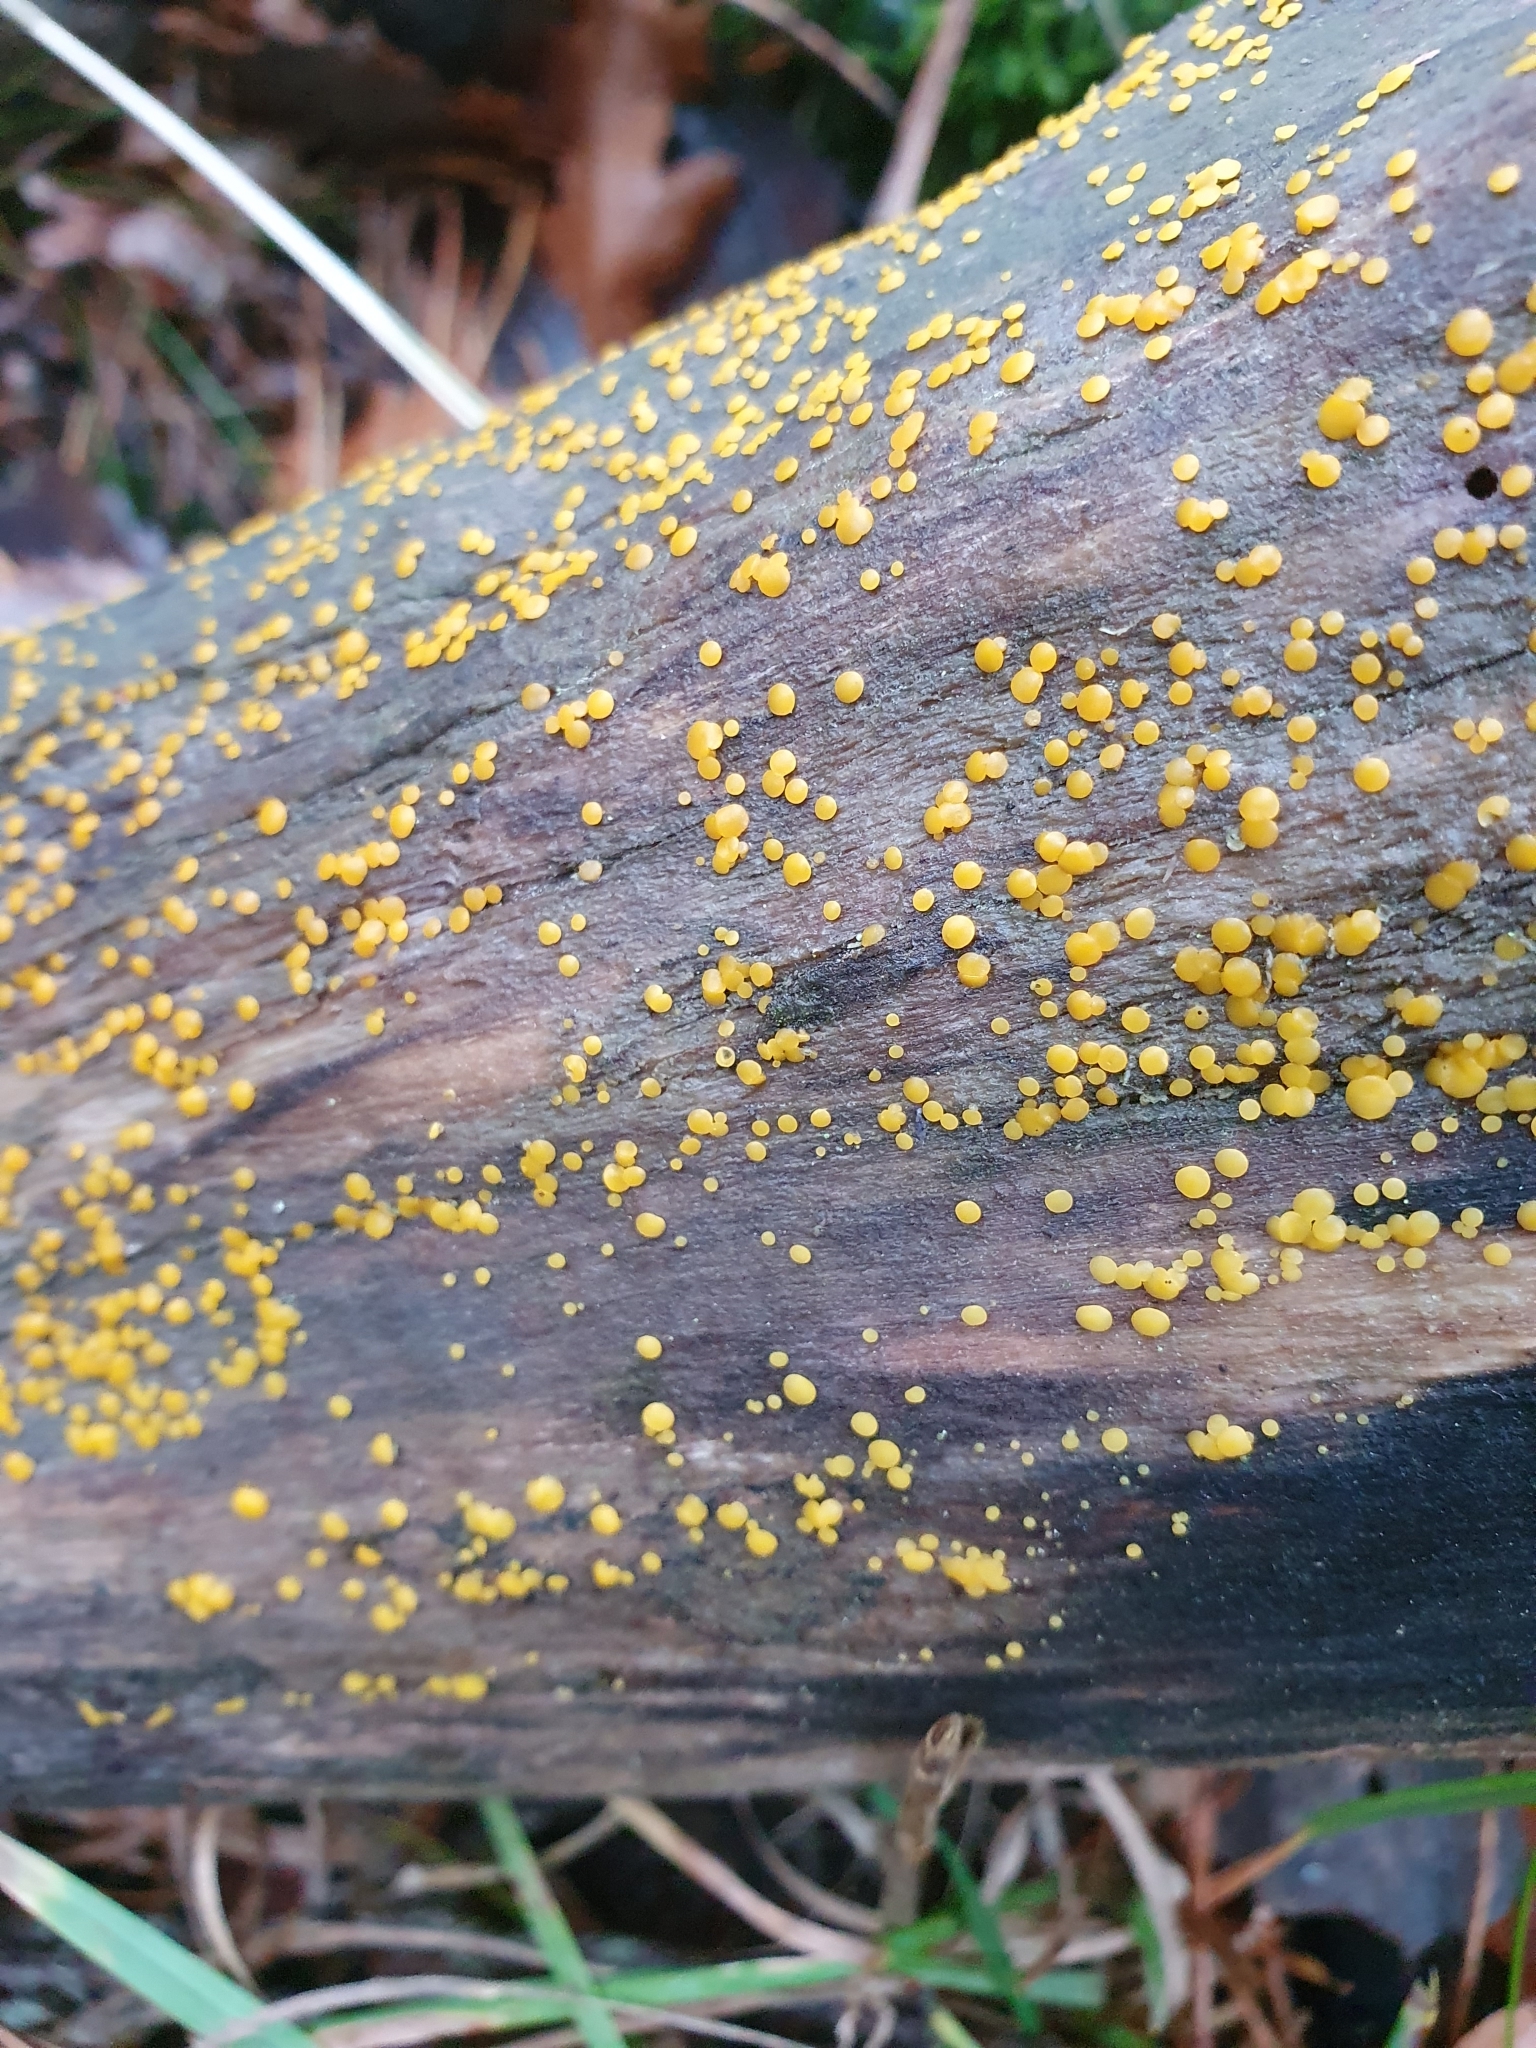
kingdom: Fungi
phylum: Basidiomycota
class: Dacrymycetes
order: Dacrymycetales
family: Dacrymycetaceae
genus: Dacrymyces
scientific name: Dacrymyces stillatus
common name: Common jelly spot
